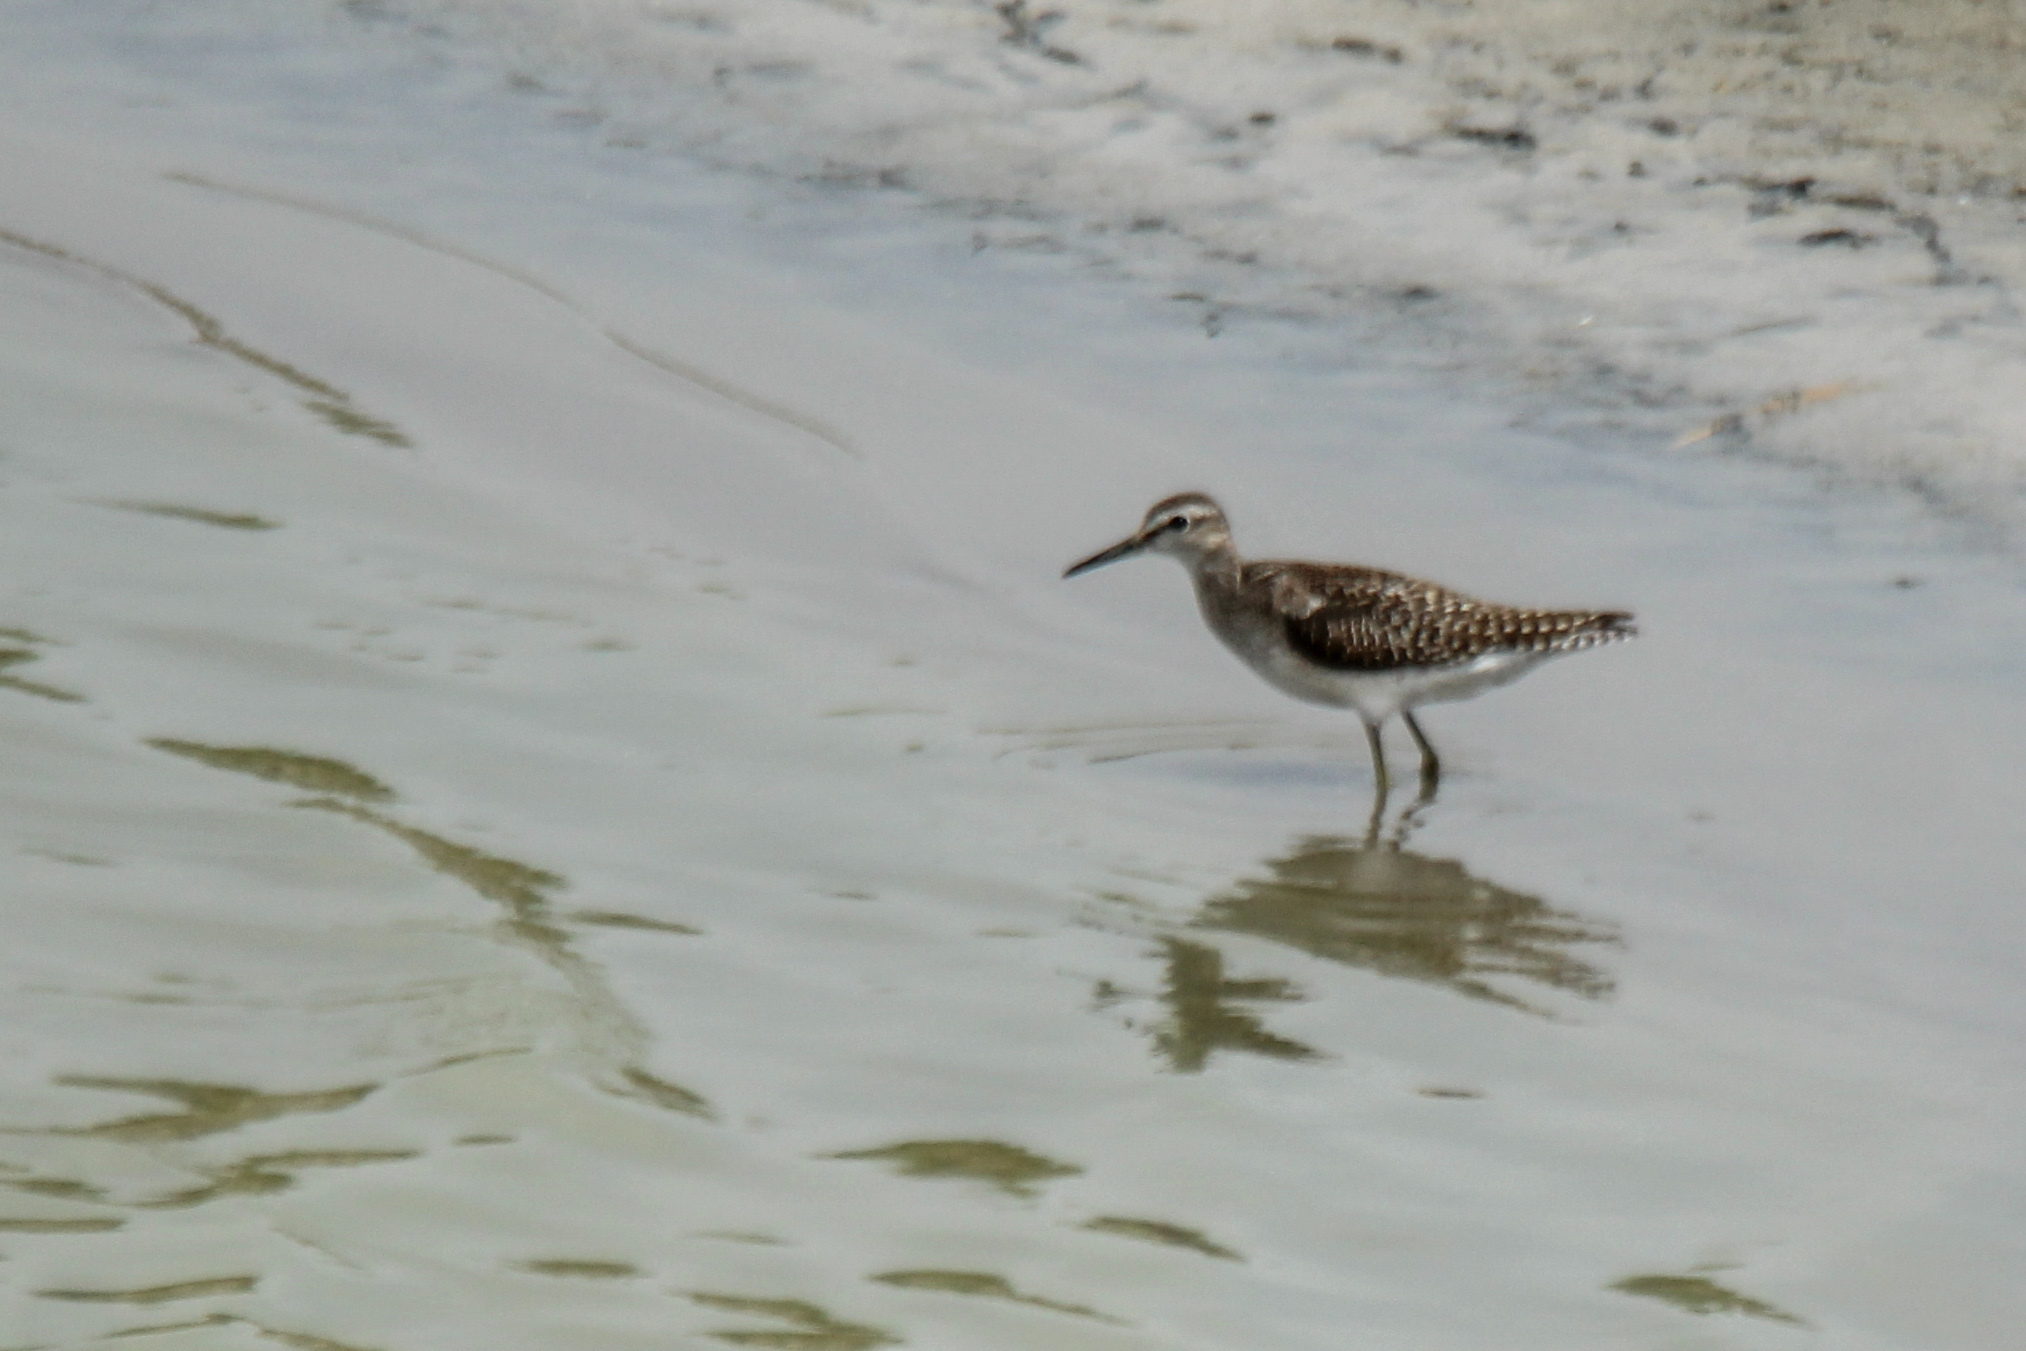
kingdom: Animalia
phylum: Chordata
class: Aves
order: Charadriiformes
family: Scolopacidae
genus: Tringa
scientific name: Tringa glareola
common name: Wood sandpiper
